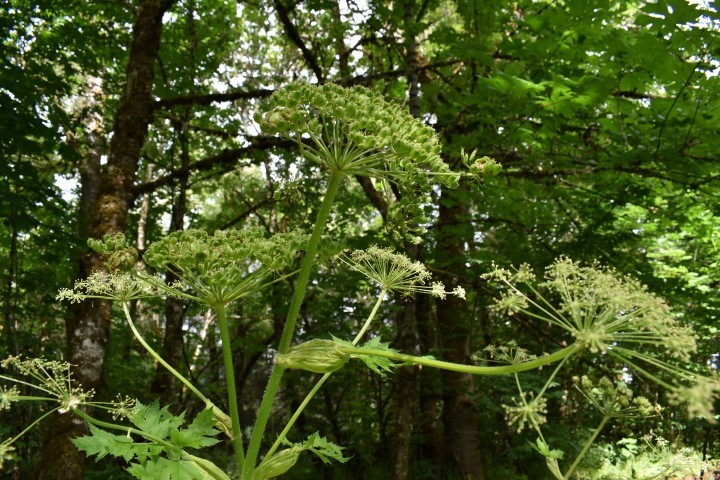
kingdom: Plantae
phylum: Tracheophyta
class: Magnoliopsida
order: Apiales
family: Apiaceae
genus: Heracleum
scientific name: Heracleum maximum
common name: American cow parsnip
